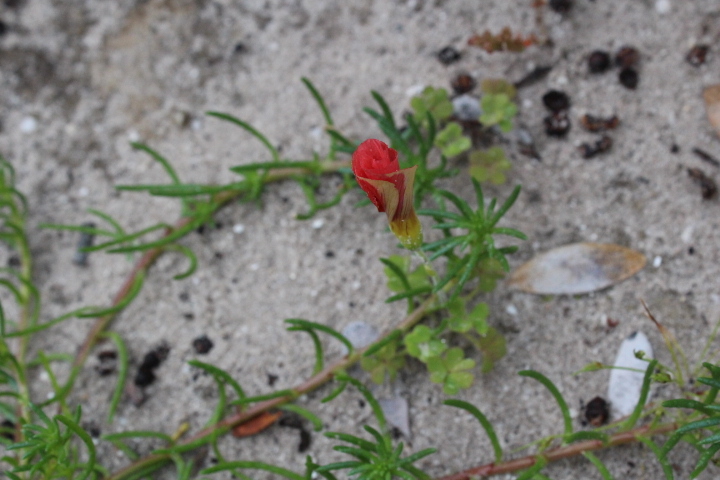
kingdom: Plantae
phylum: Tracheophyta
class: Magnoliopsida
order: Oxalidales
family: Oxalidaceae
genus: Oxalis
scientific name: Oxalis obtusa
